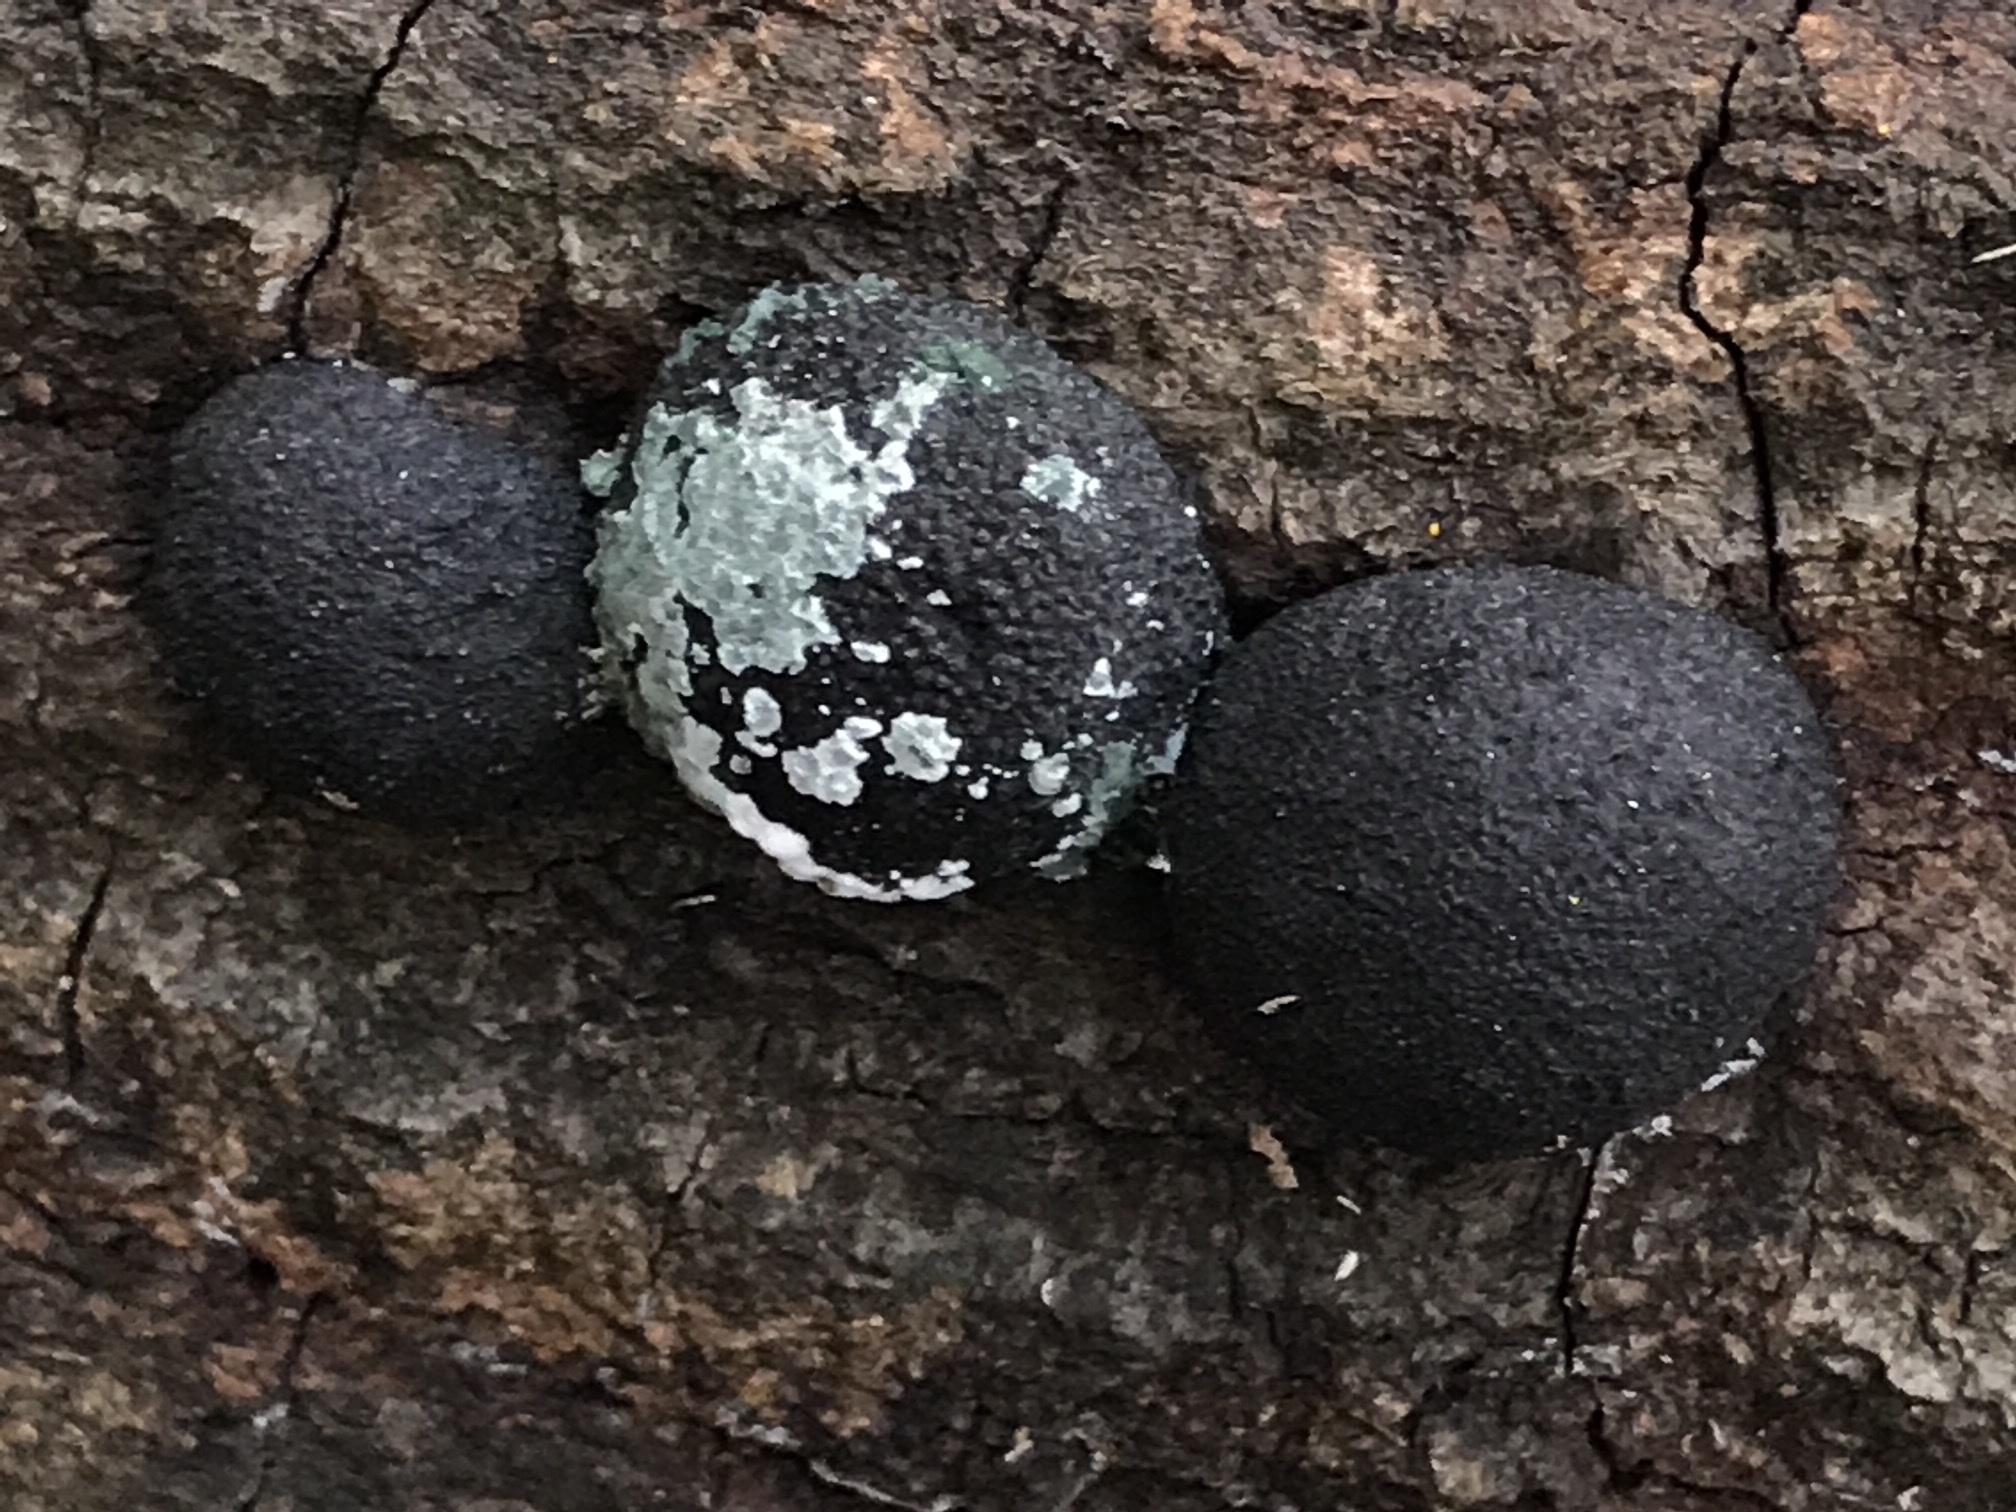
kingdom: Fungi
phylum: Ascomycota
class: Sordariomycetes
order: Xylariales
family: Hypoxylaceae
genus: Annulohypoxylon
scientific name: Annulohypoxylon thouarsianum
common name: Cramp balls
